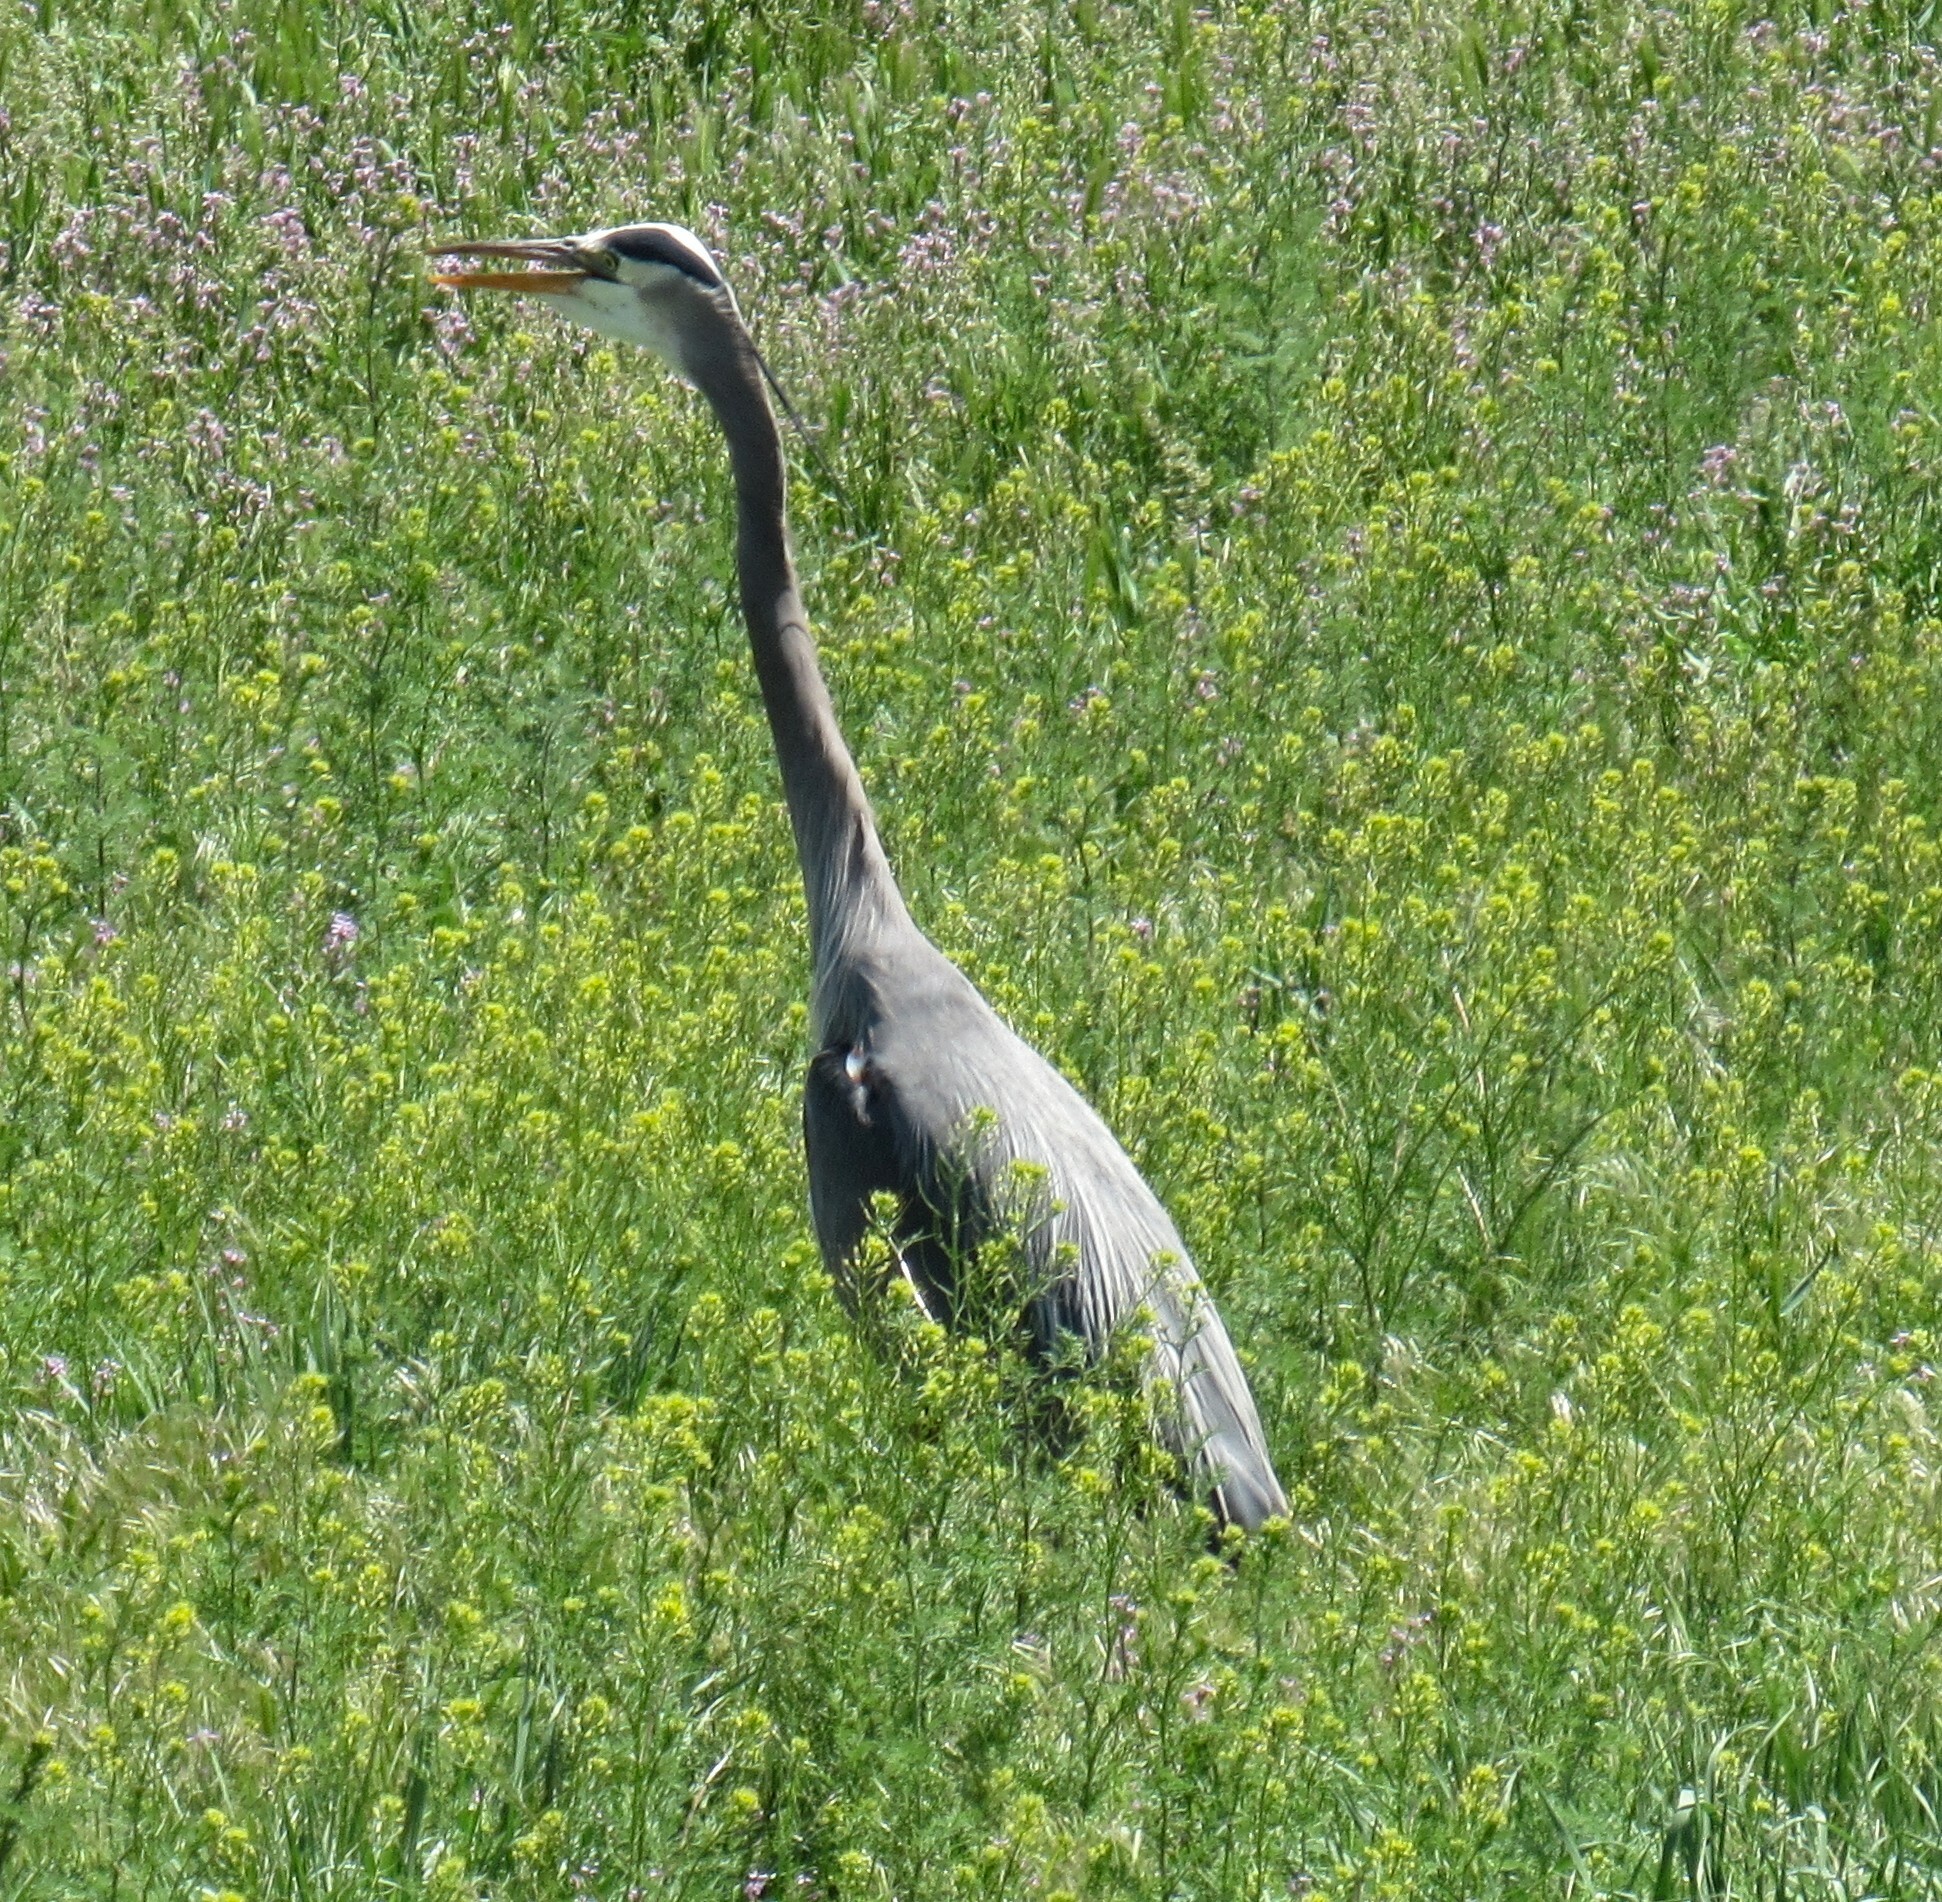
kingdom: Animalia
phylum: Chordata
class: Aves
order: Pelecaniformes
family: Ardeidae
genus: Ardea
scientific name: Ardea herodias
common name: Great blue heron
